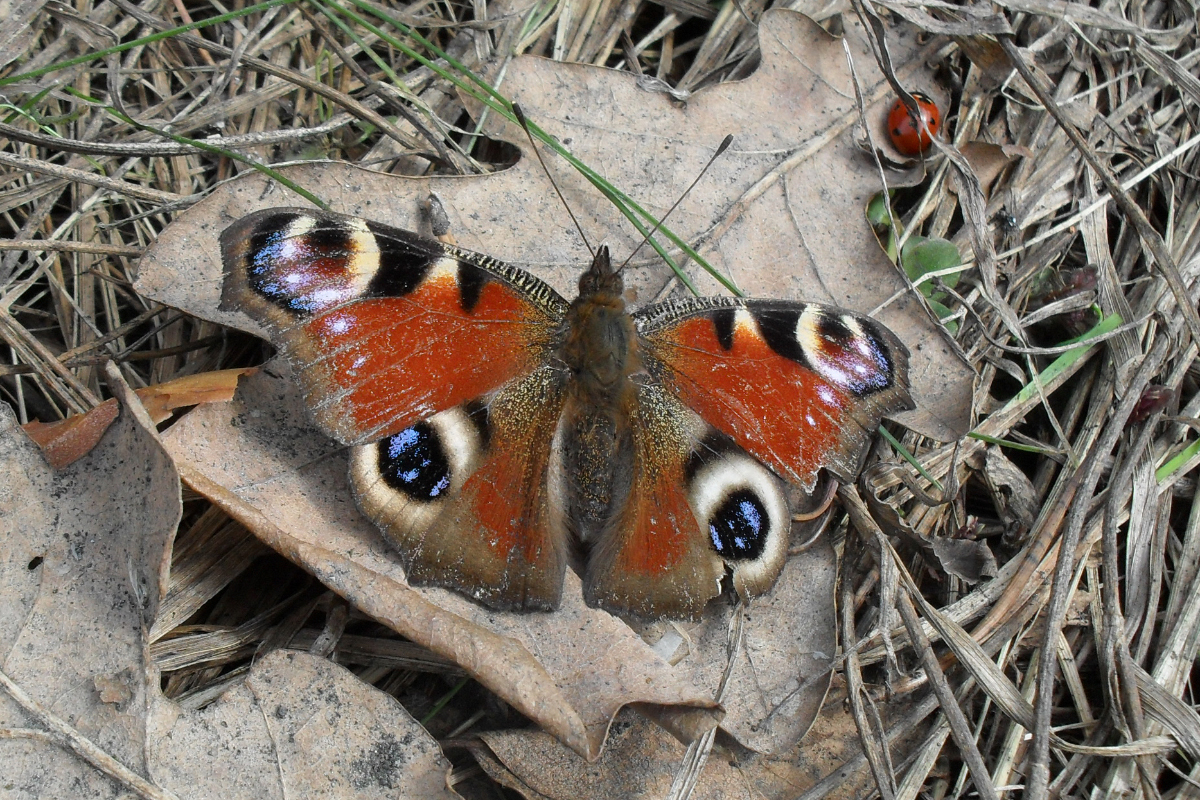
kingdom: Animalia
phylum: Arthropoda
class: Insecta
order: Lepidoptera
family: Nymphalidae
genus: Aglais
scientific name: Aglais io
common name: Peacock
